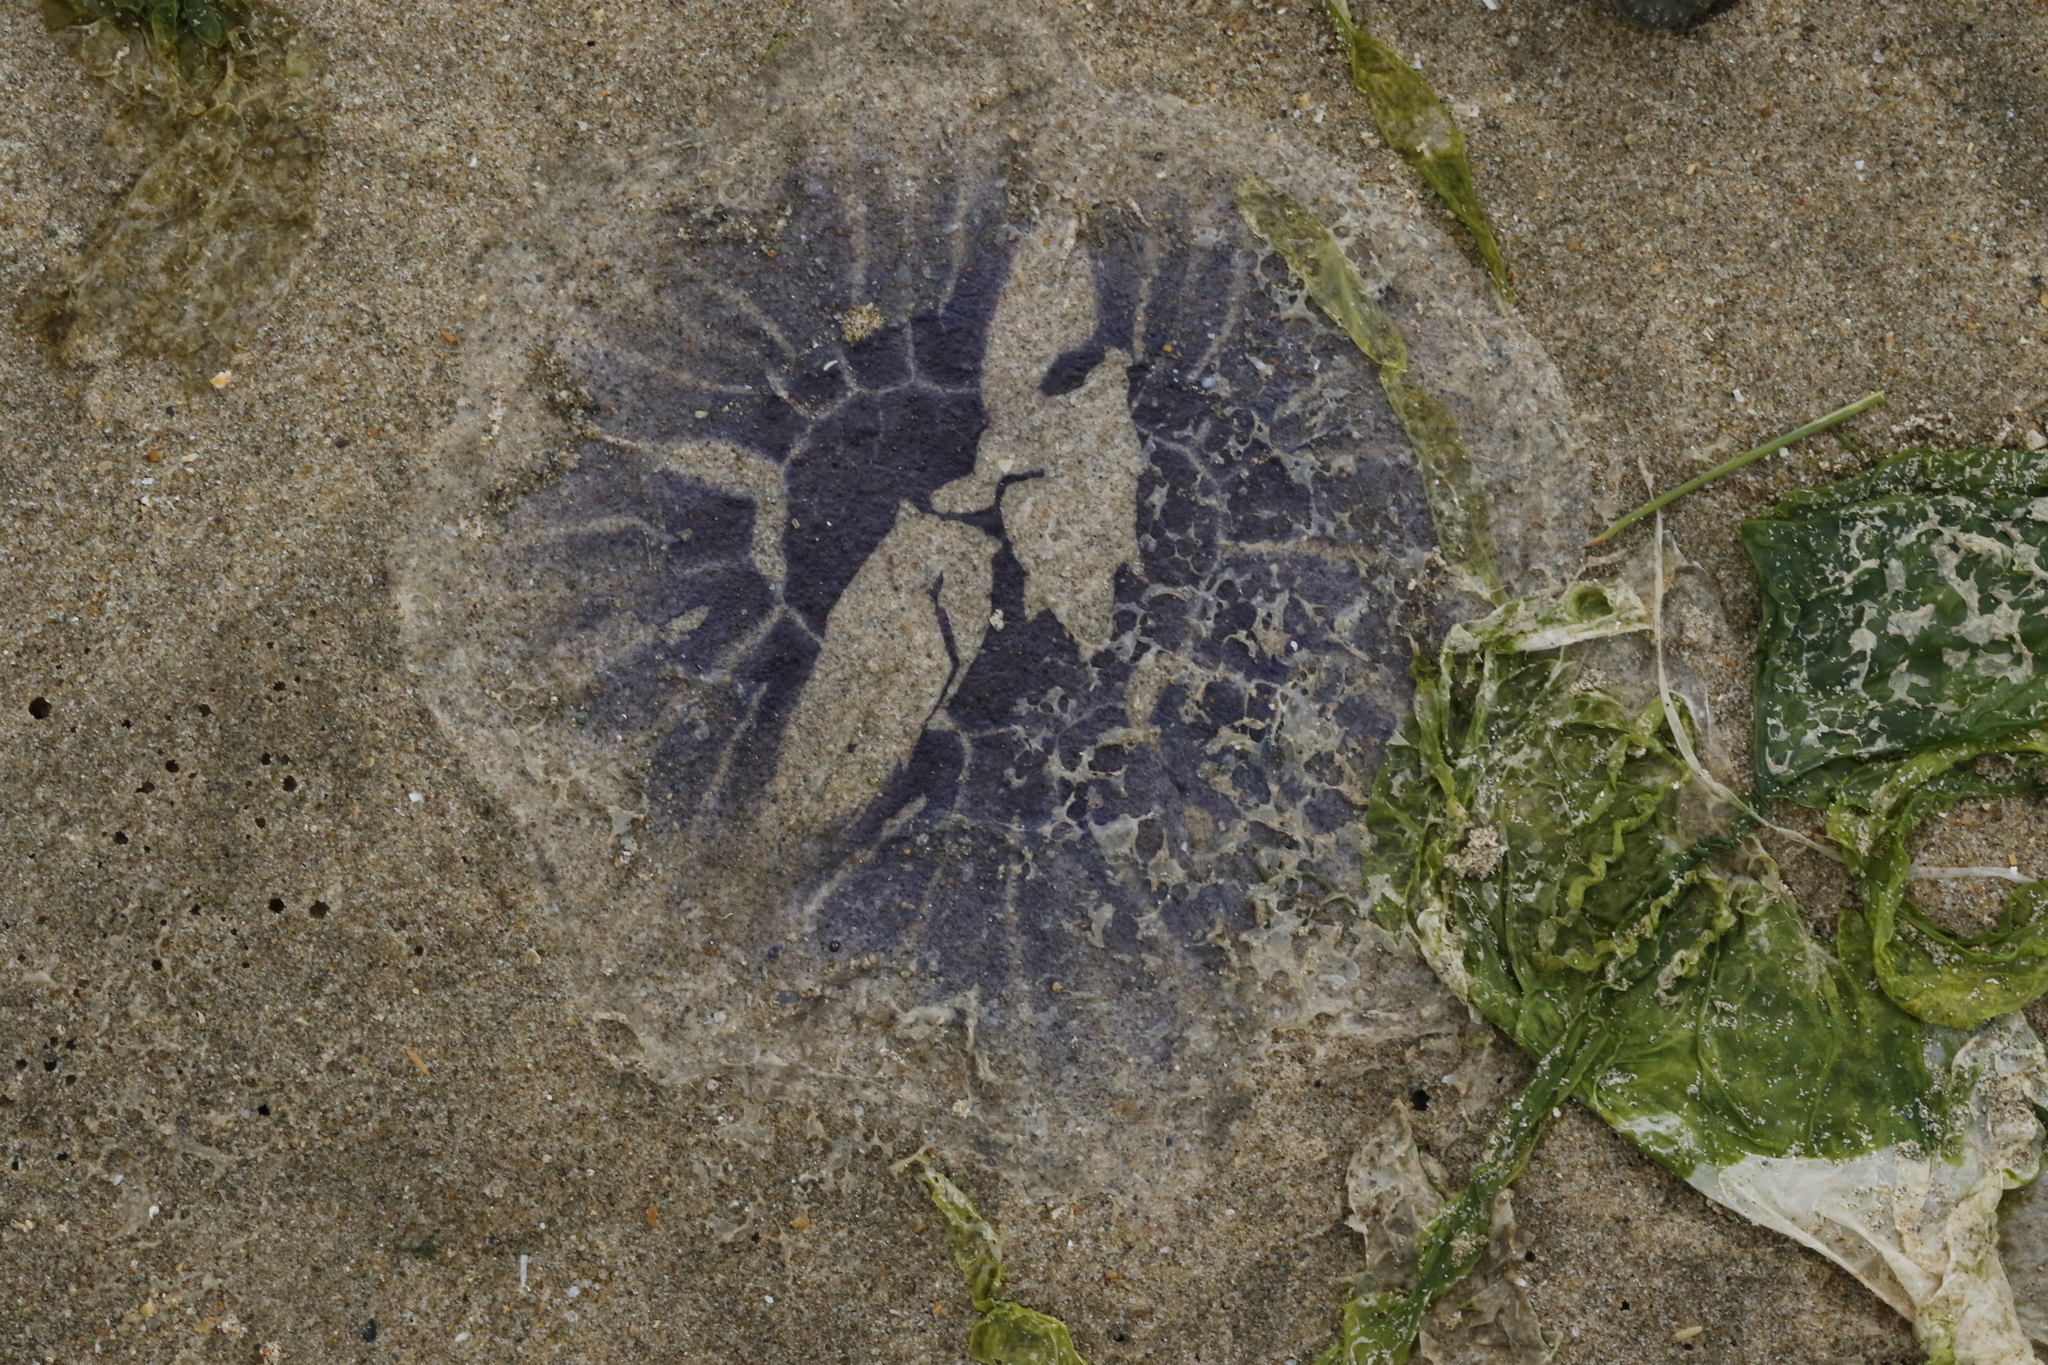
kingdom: Animalia
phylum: Cnidaria
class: Scyphozoa
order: Semaeostomeae
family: Cyaneidae
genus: Cyanea
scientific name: Cyanea lamarckii
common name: Blue jellyfish
